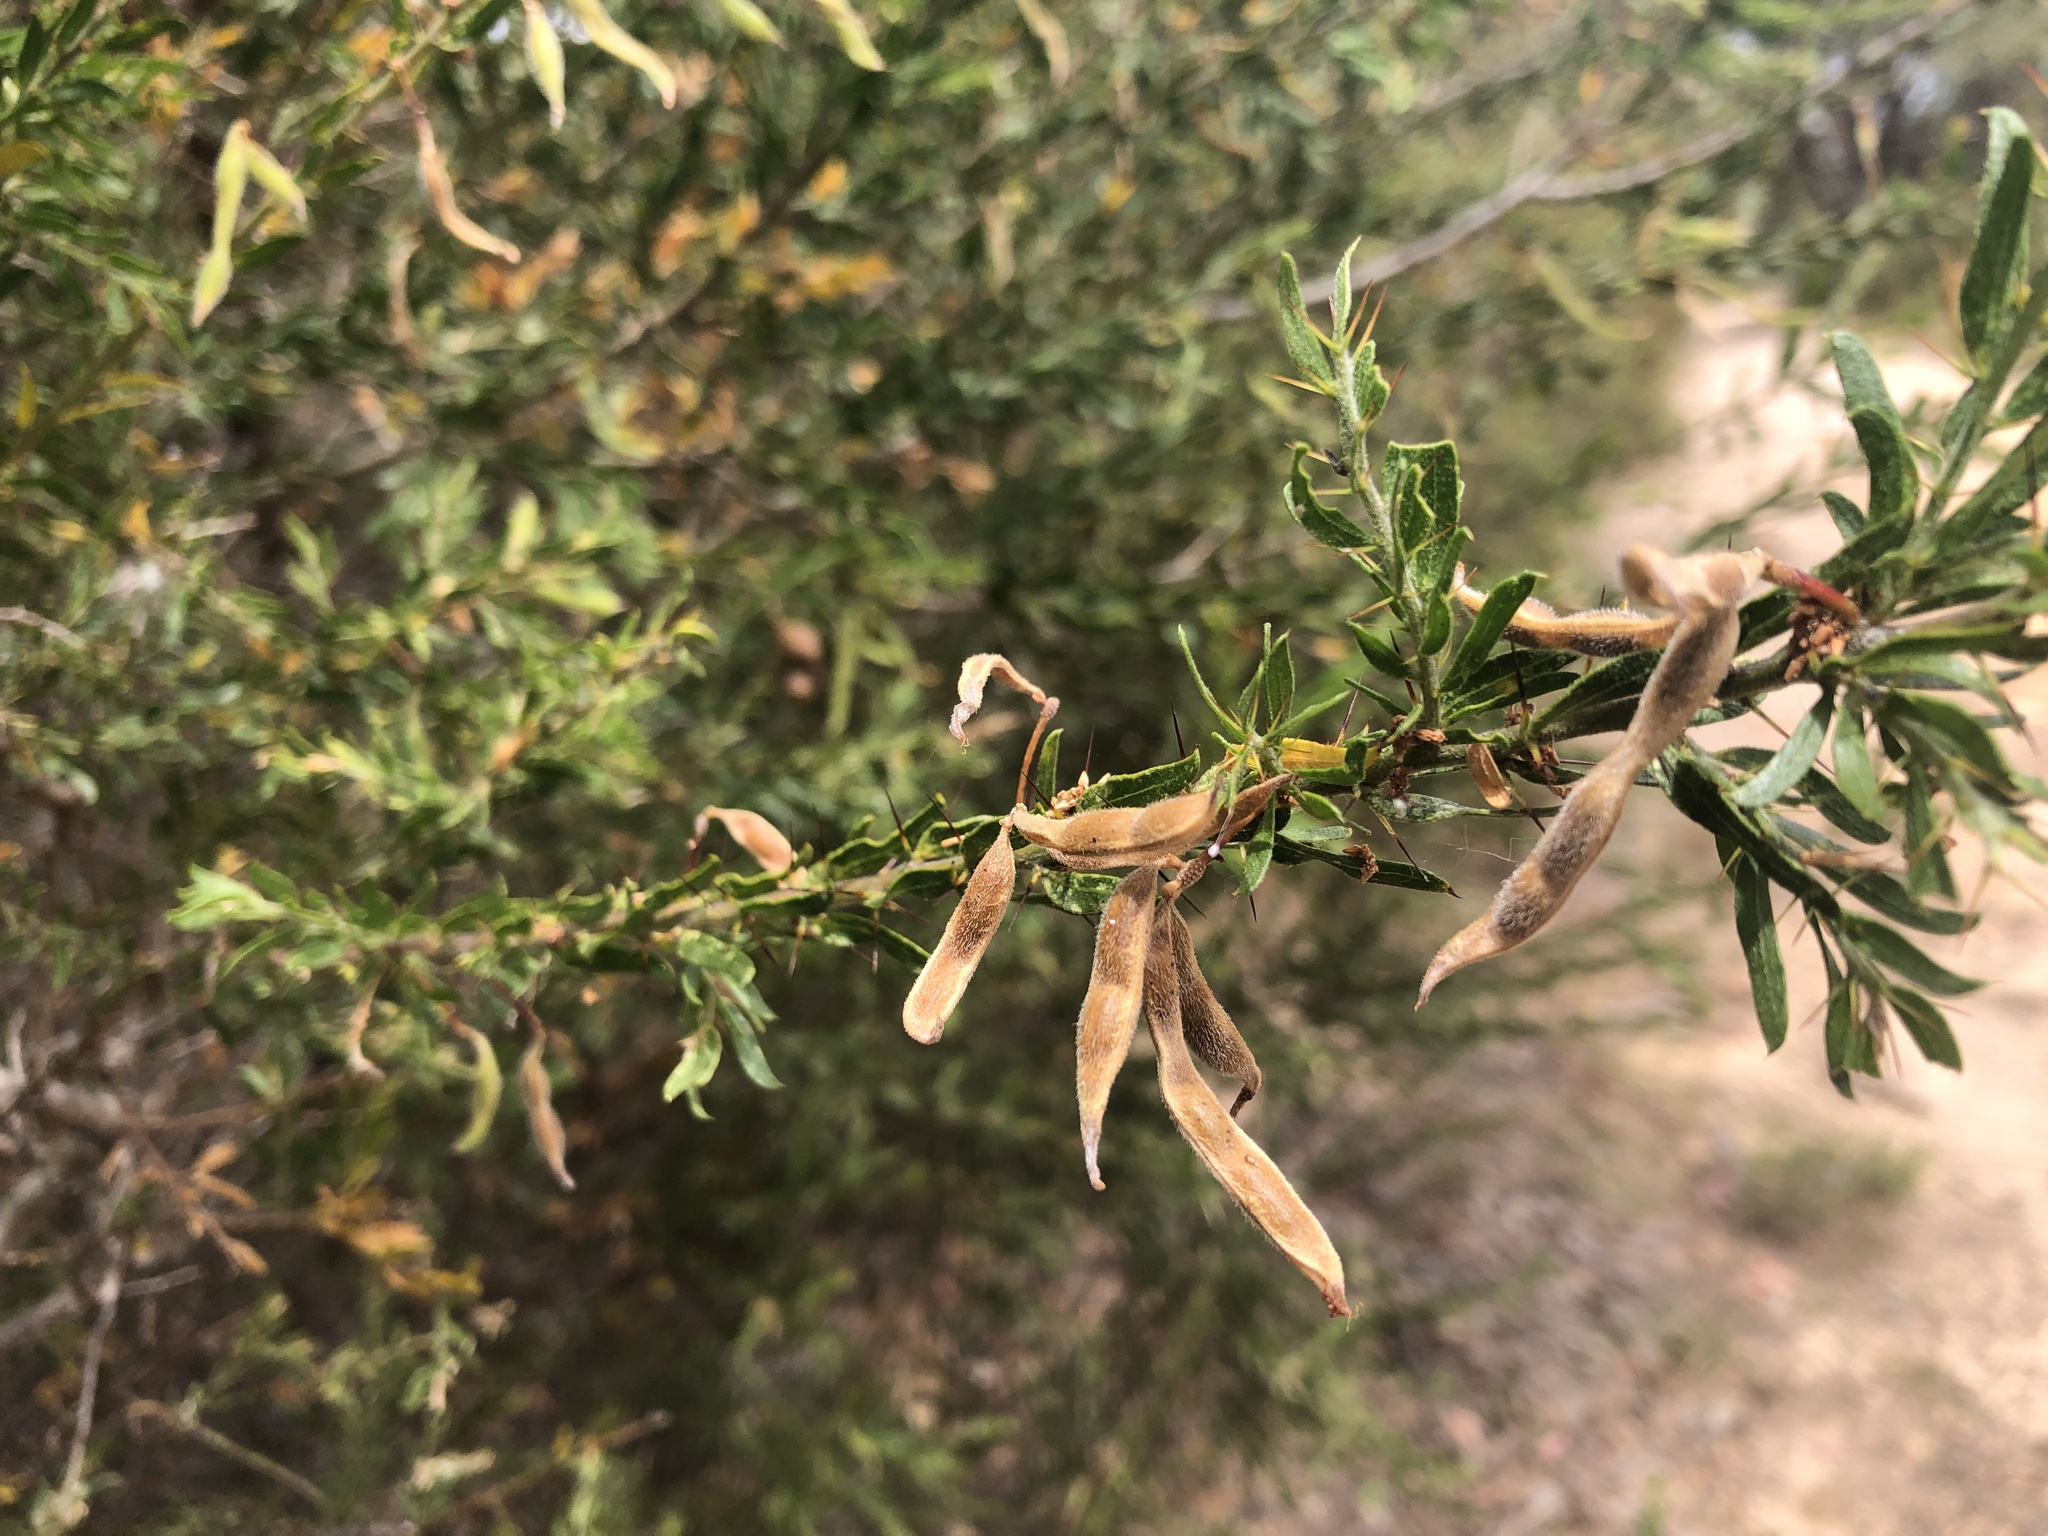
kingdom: Plantae
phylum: Tracheophyta
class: Magnoliopsida
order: Fabales
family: Fabaceae
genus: Acacia
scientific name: Acacia paradoxa
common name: Paradox acacia
